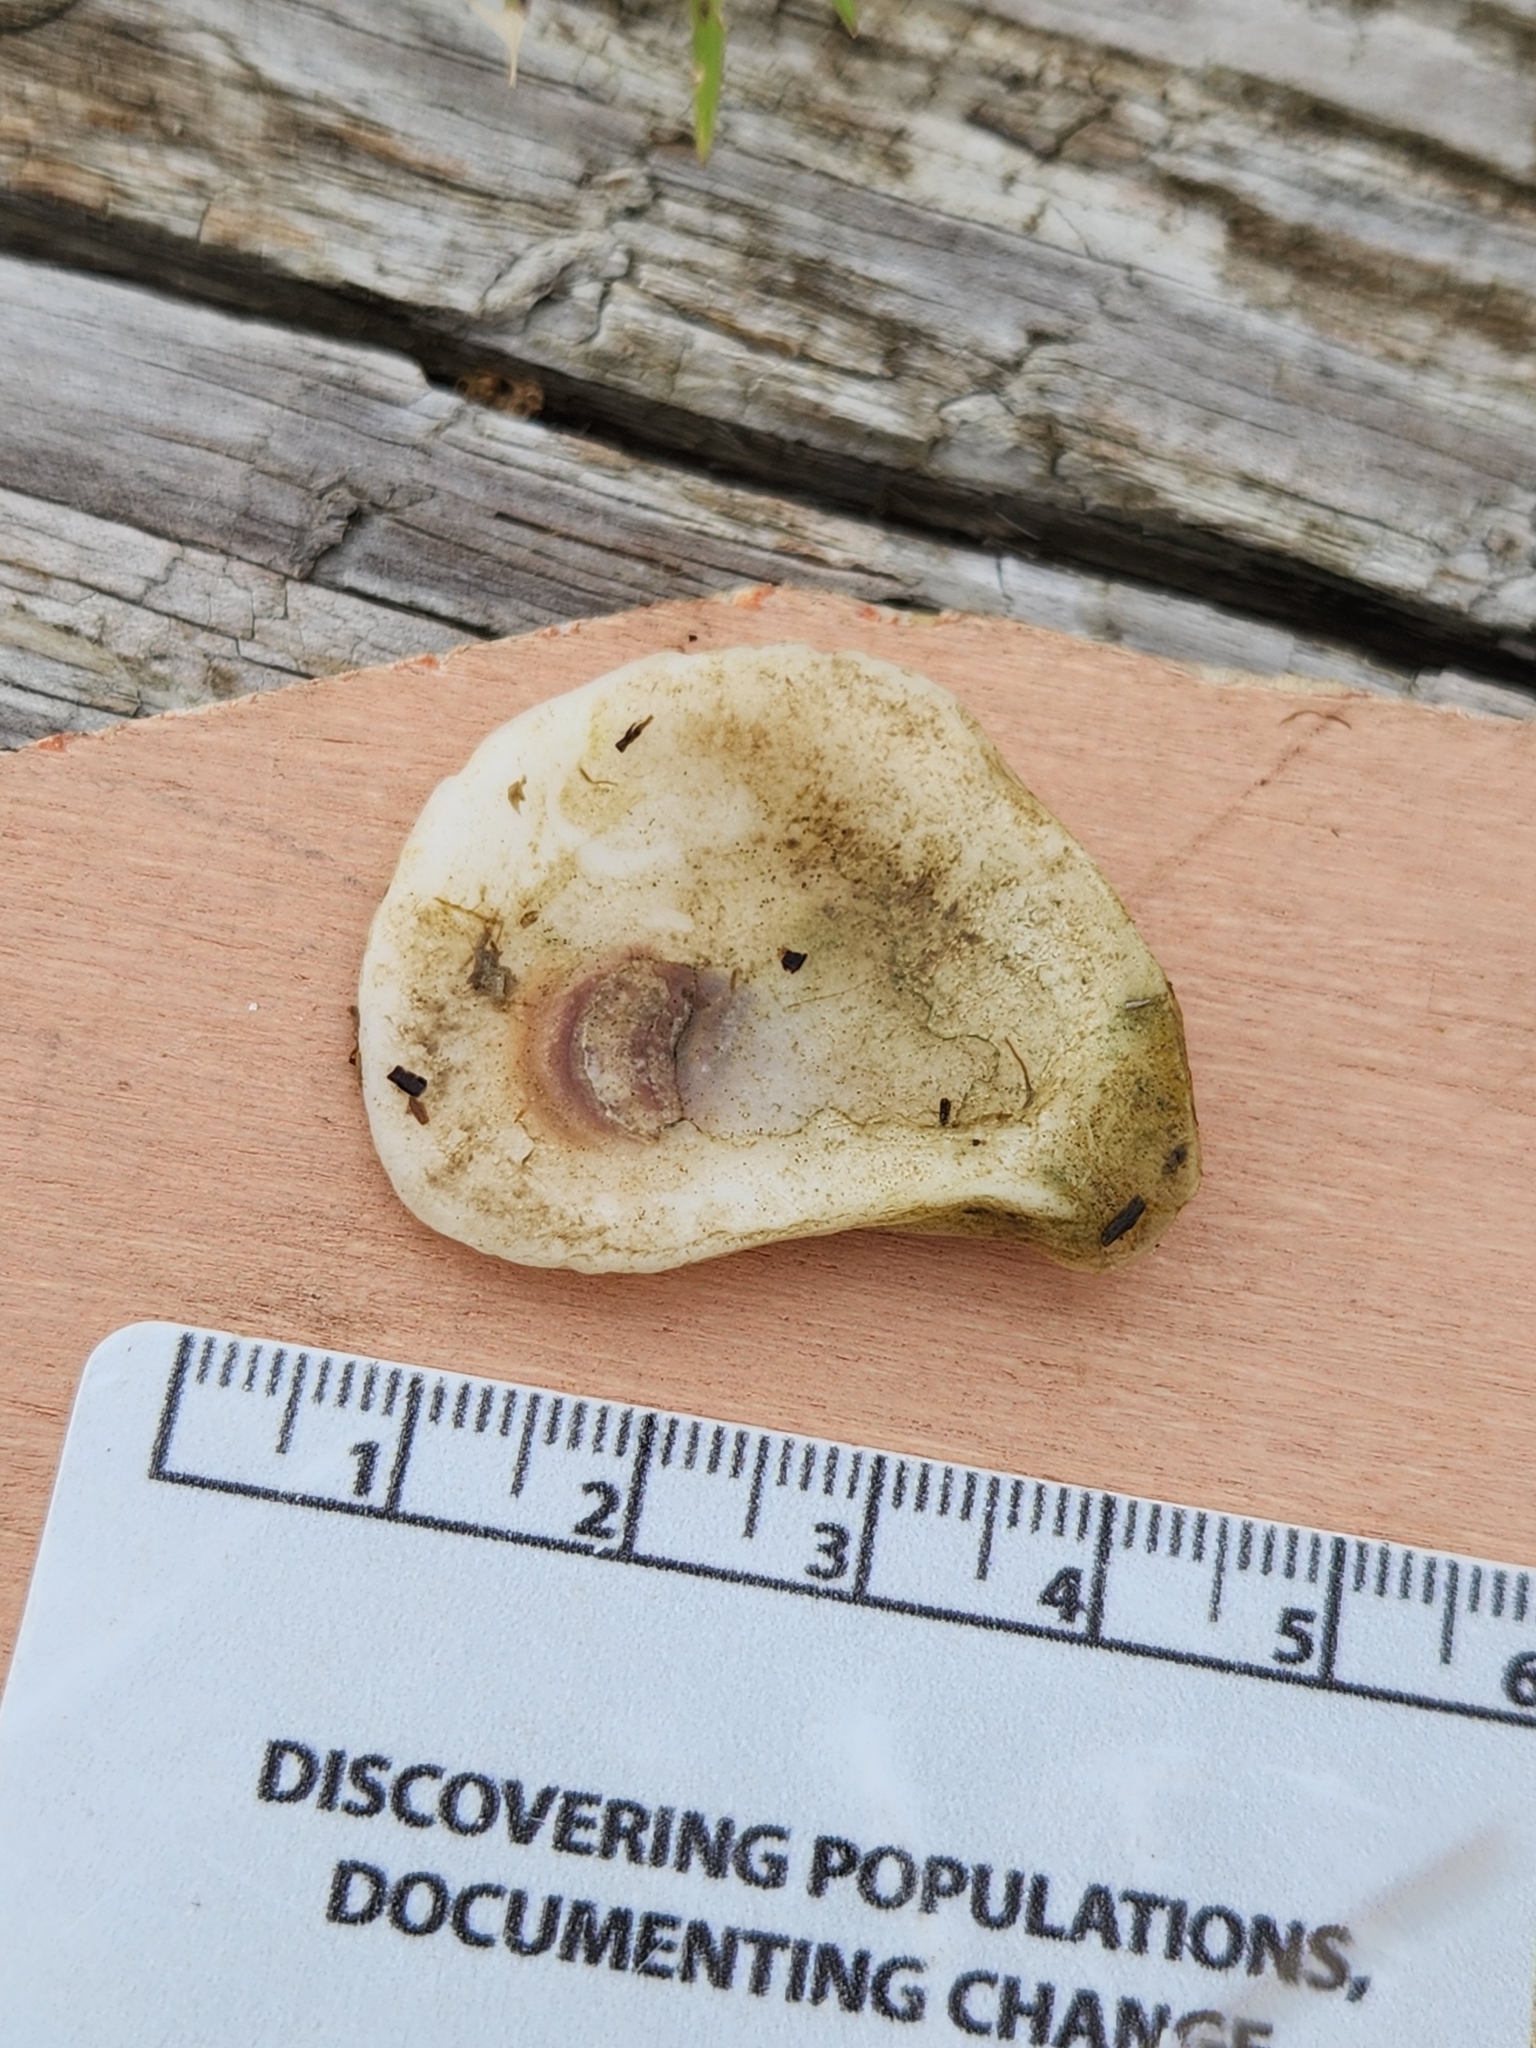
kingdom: Animalia
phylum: Mollusca
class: Bivalvia
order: Ostreida
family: Ostreidae
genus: Crassostrea
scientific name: Crassostrea virginica
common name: American oyster
